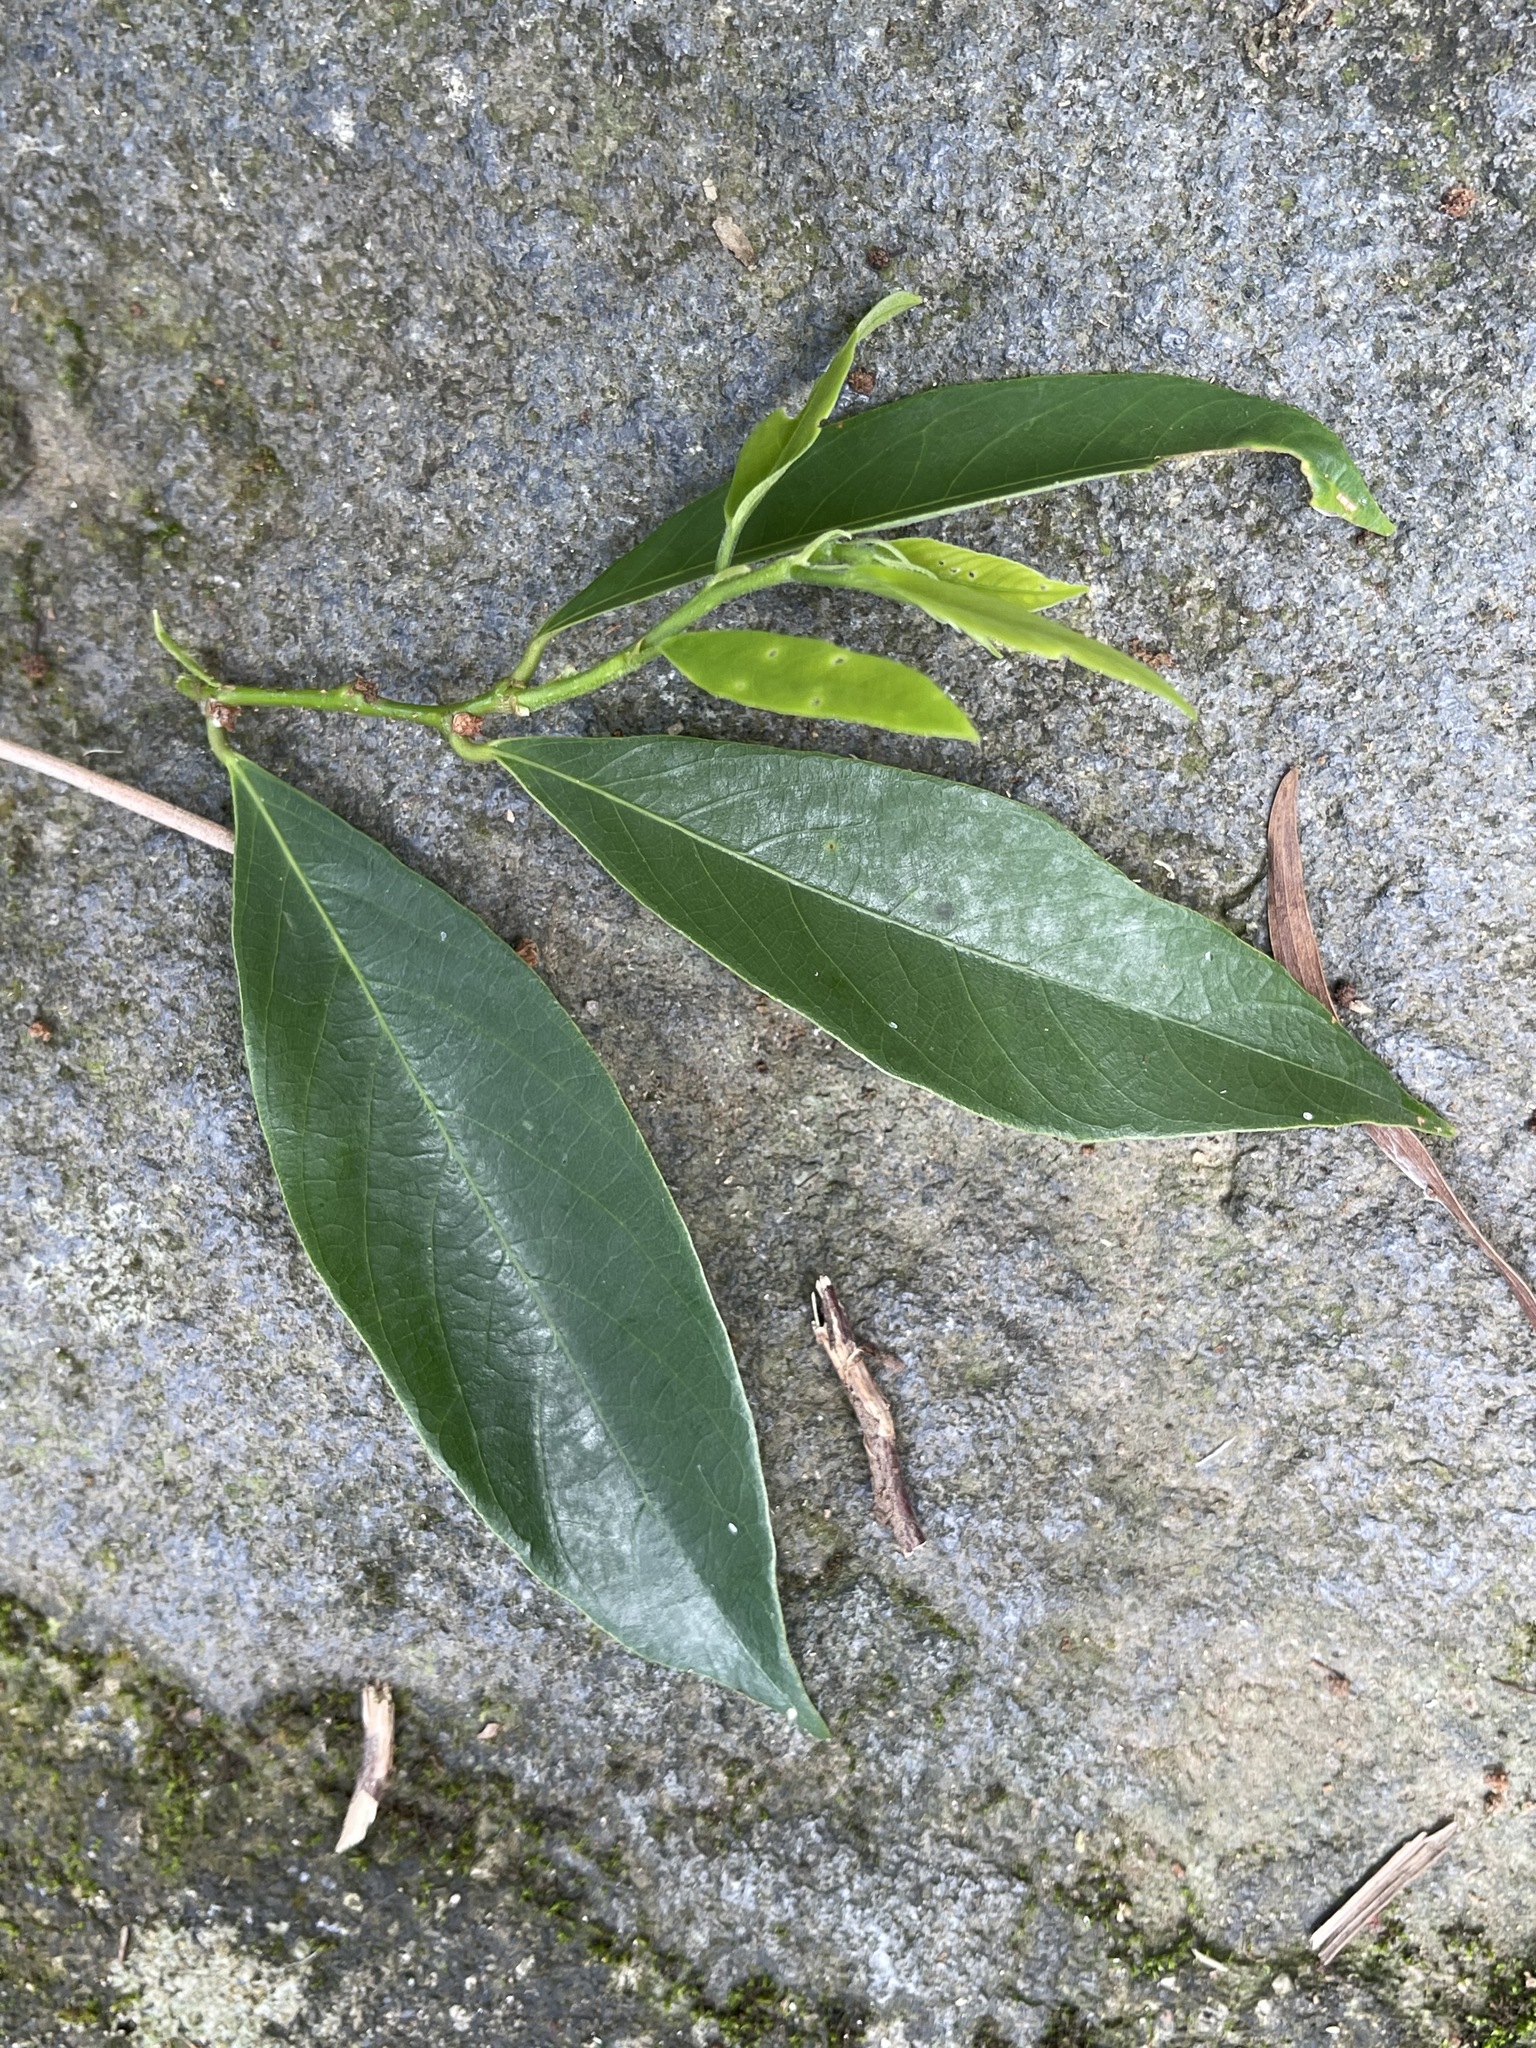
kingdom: Plantae
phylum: Tracheophyta
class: Magnoliopsida
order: Malpighiales
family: Phyllanthaceae
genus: Bridelia
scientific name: Bridelia balansae
